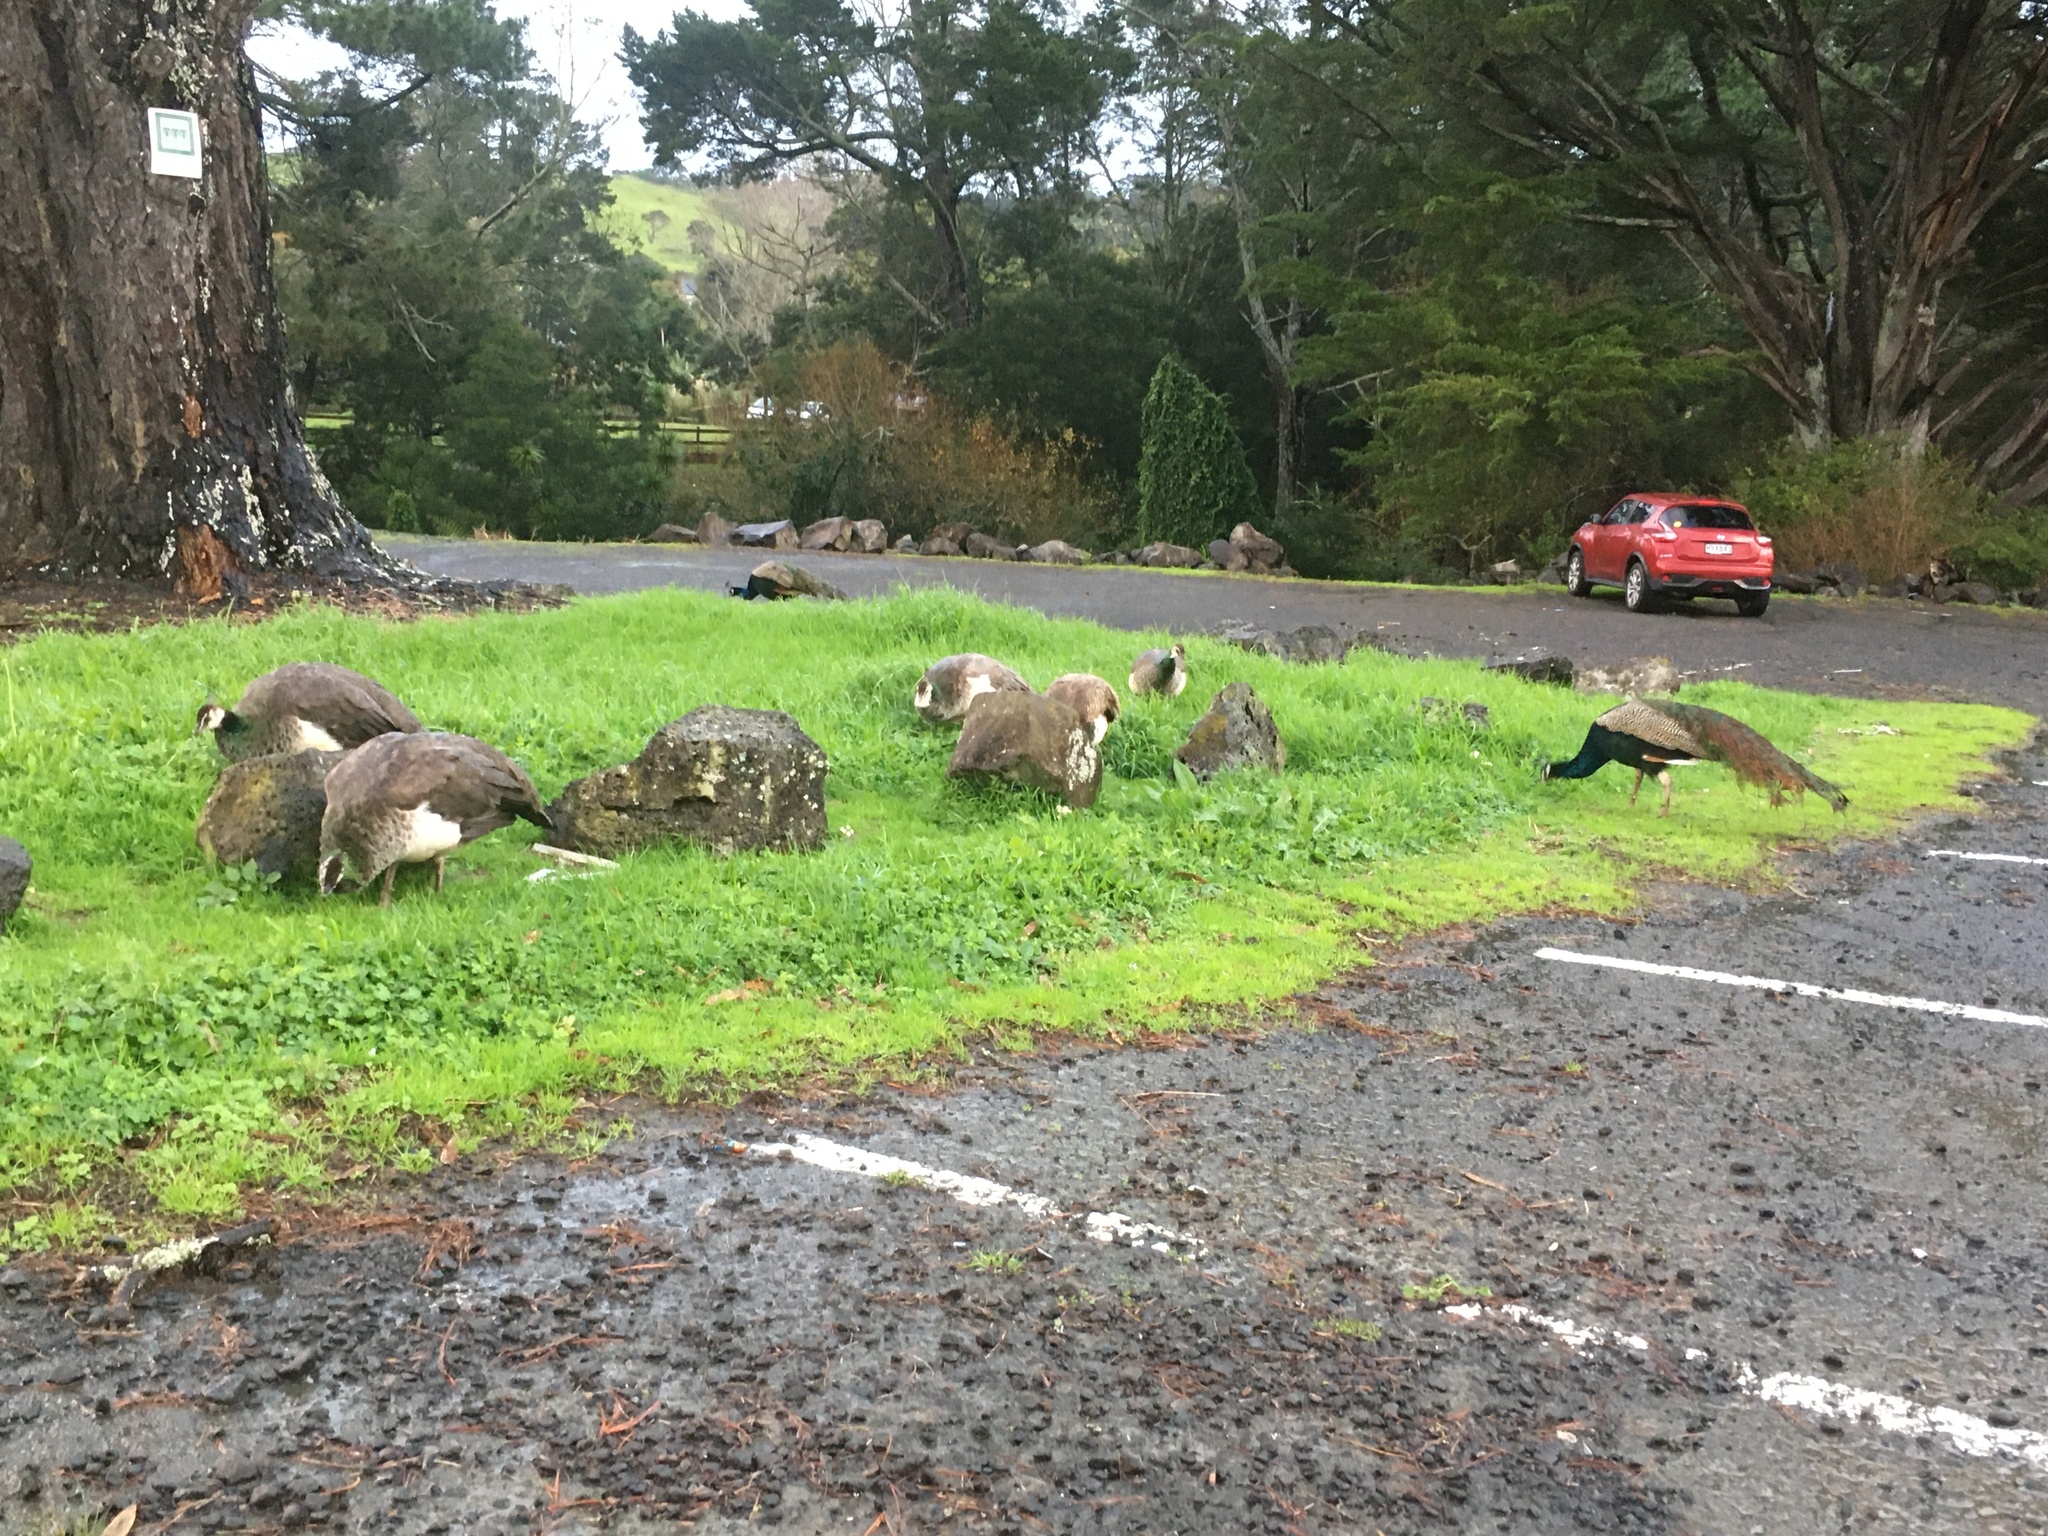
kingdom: Animalia
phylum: Chordata
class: Aves
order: Galliformes
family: Phasianidae
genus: Pavo
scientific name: Pavo cristatus
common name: Indian peafowl
